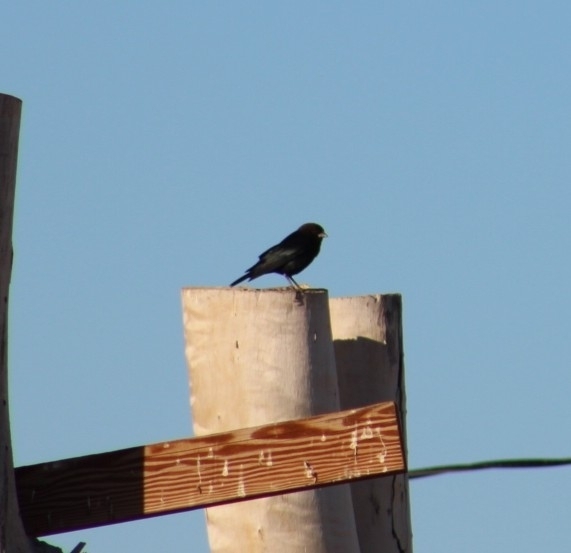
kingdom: Animalia
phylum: Chordata
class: Aves
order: Passeriformes
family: Icteridae
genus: Molothrus
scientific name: Molothrus ater
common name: Brown-headed cowbird
